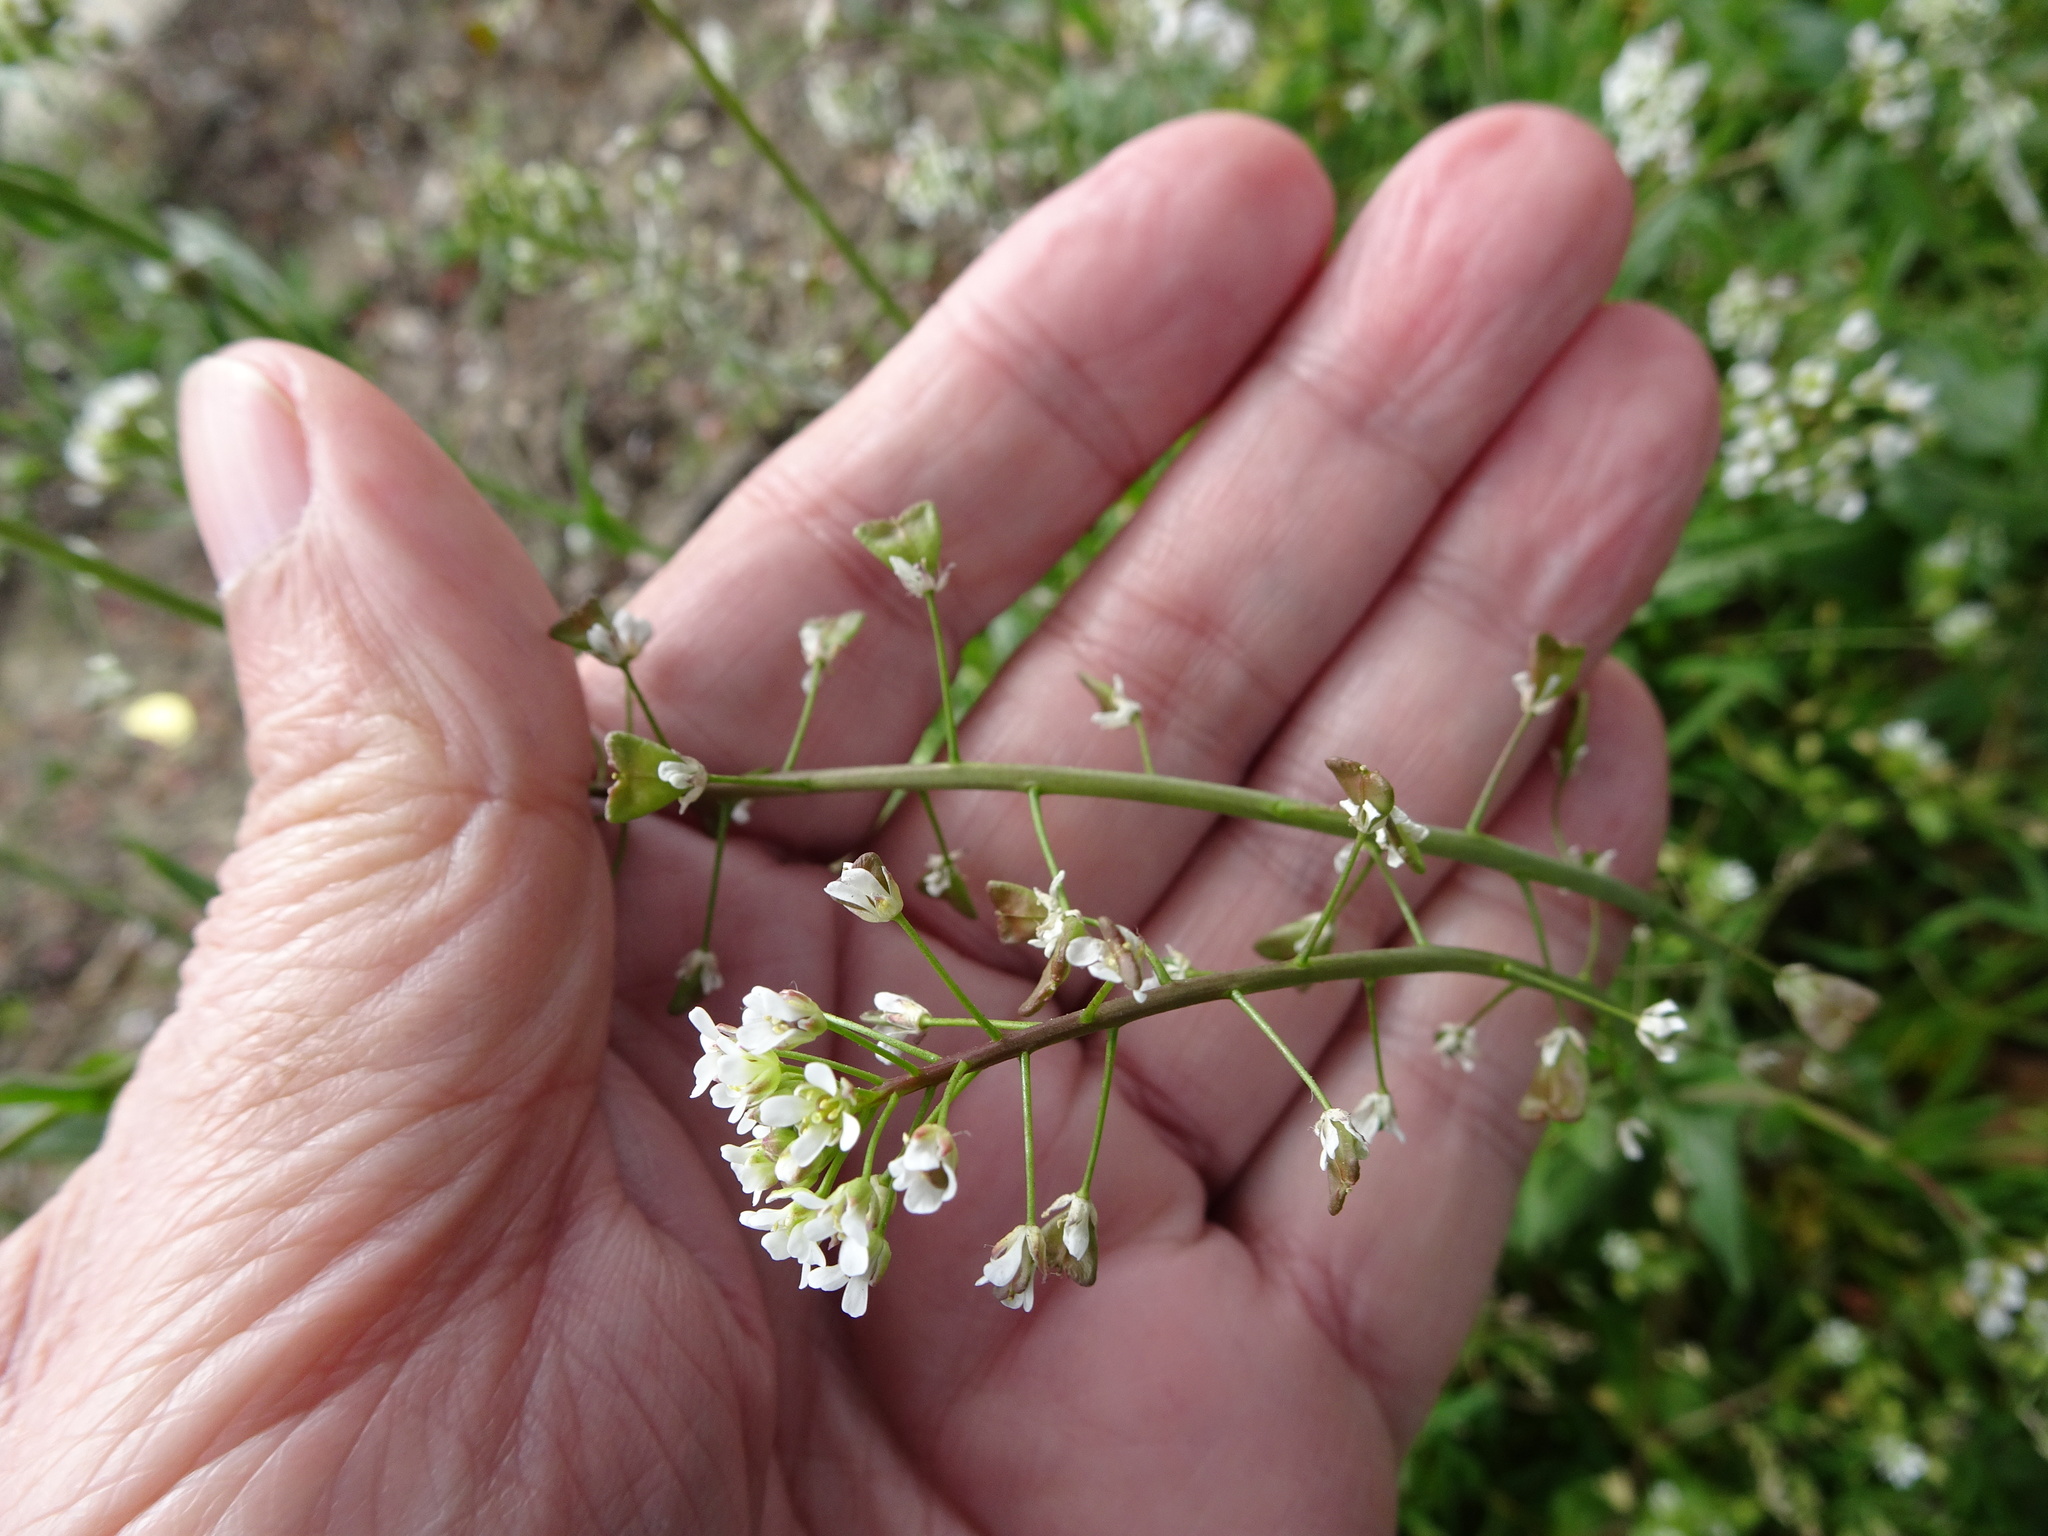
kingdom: Plantae
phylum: Tracheophyta
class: Magnoliopsida
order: Brassicales
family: Brassicaceae
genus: Capsella
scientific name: Capsella bursa-pastoris
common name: Shepherd's purse
